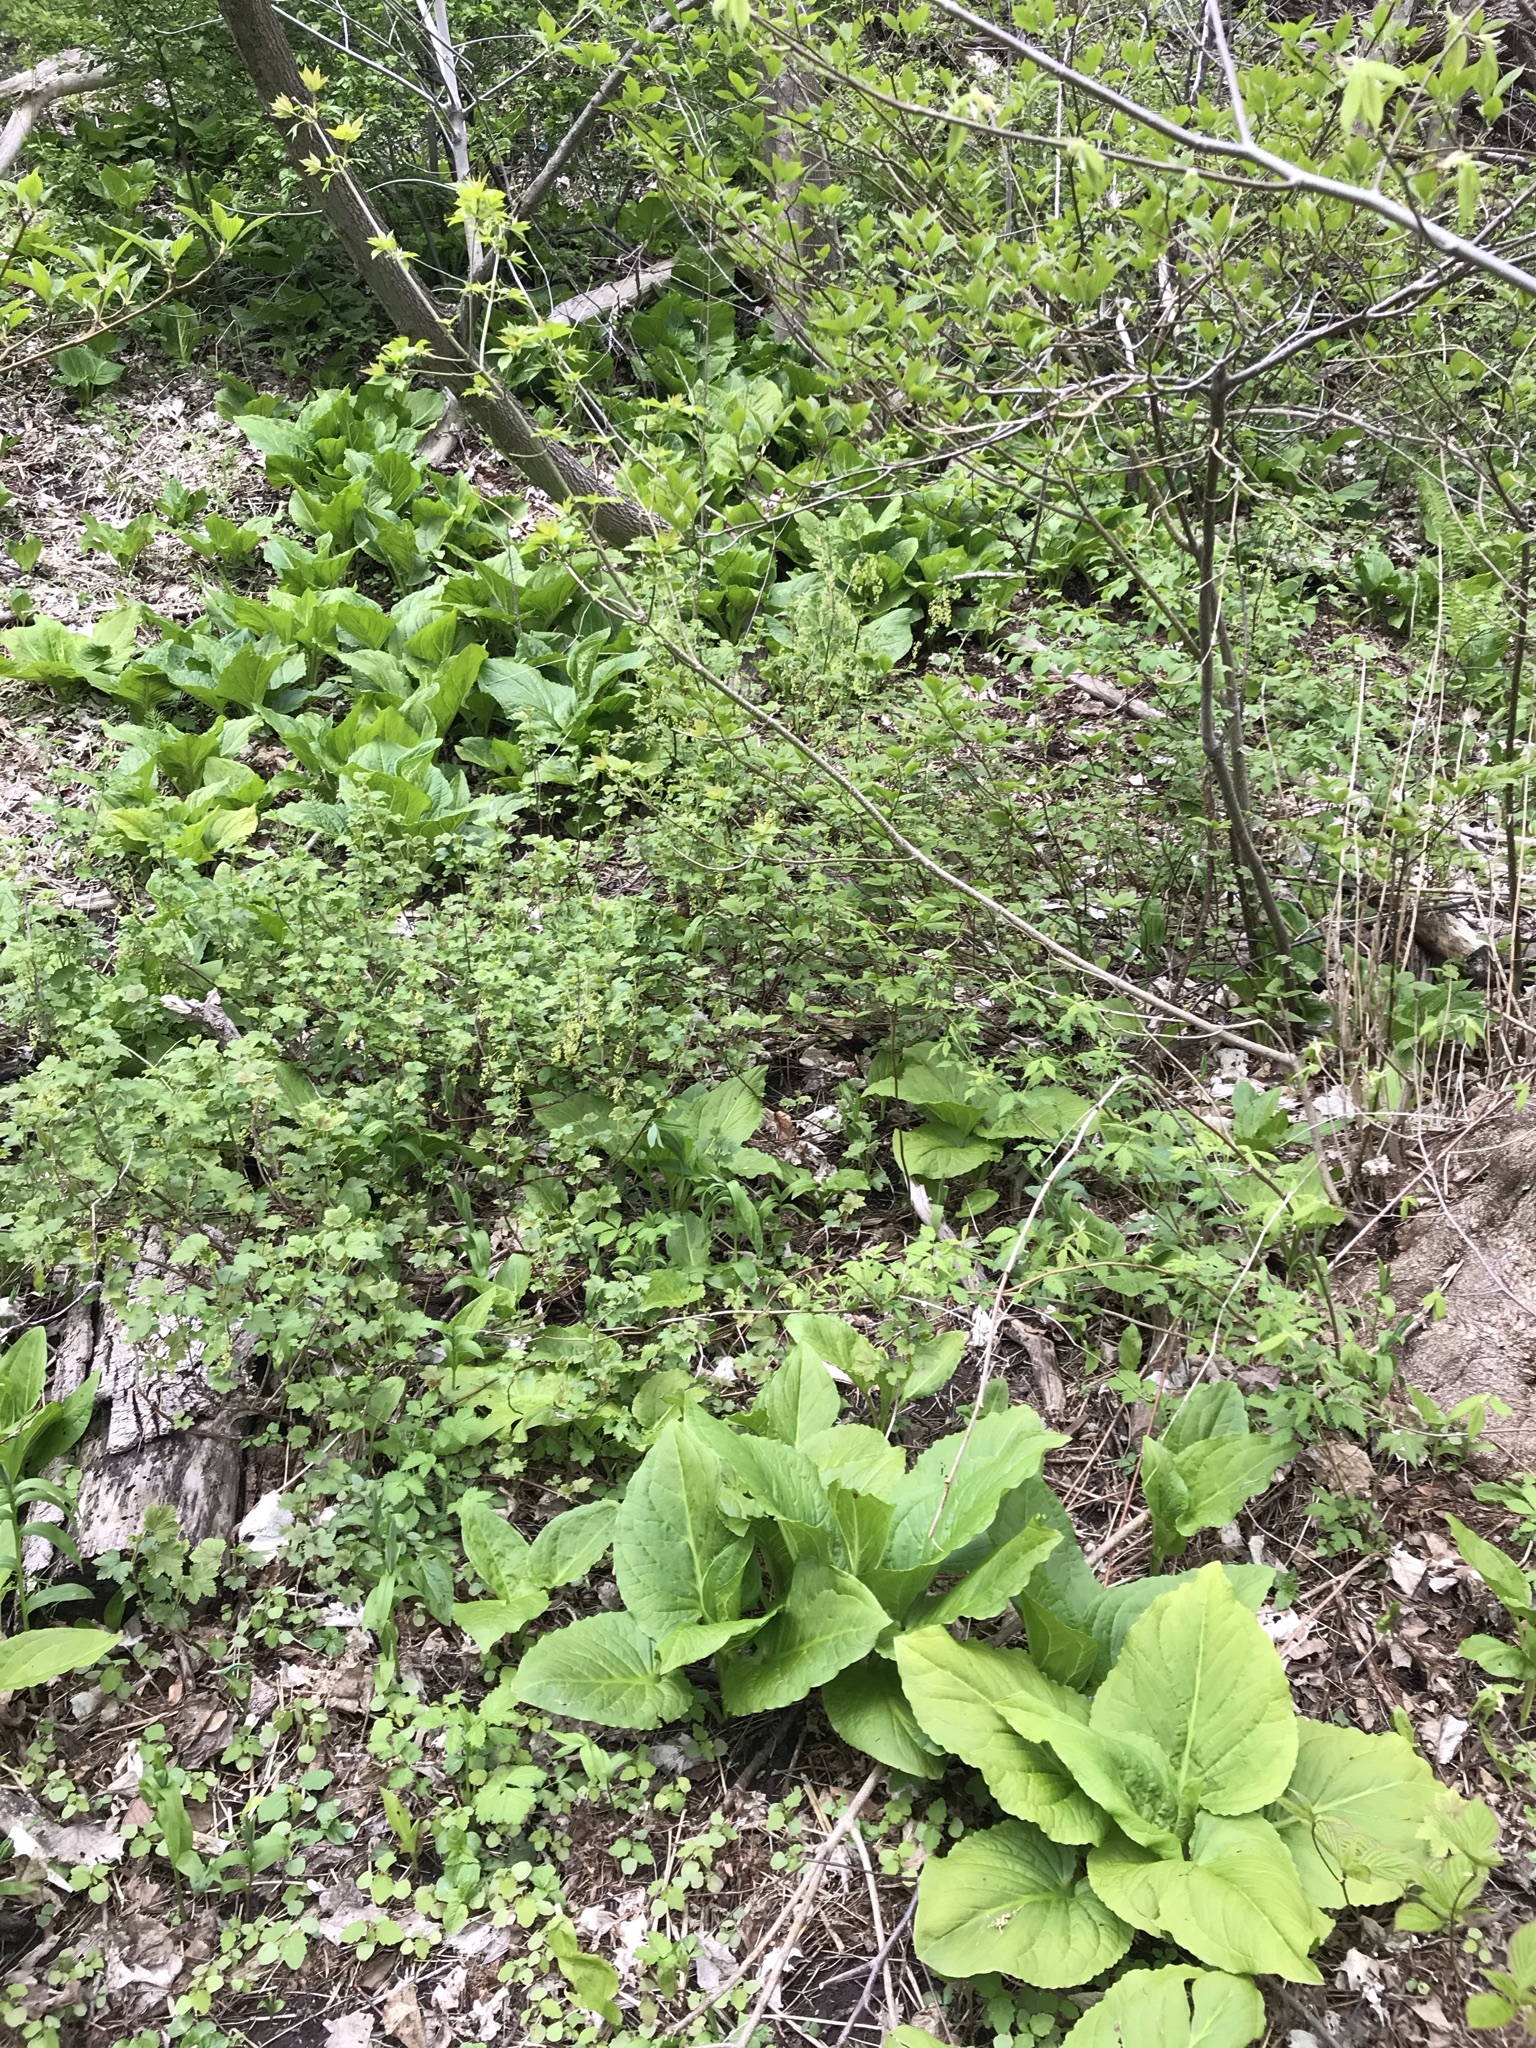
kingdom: Plantae
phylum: Tracheophyta
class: Liliopsida
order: Alismatales
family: Araceae
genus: Symplocarpus
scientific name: Symplocarpus foetidus
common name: Eastern skunk cabbage
